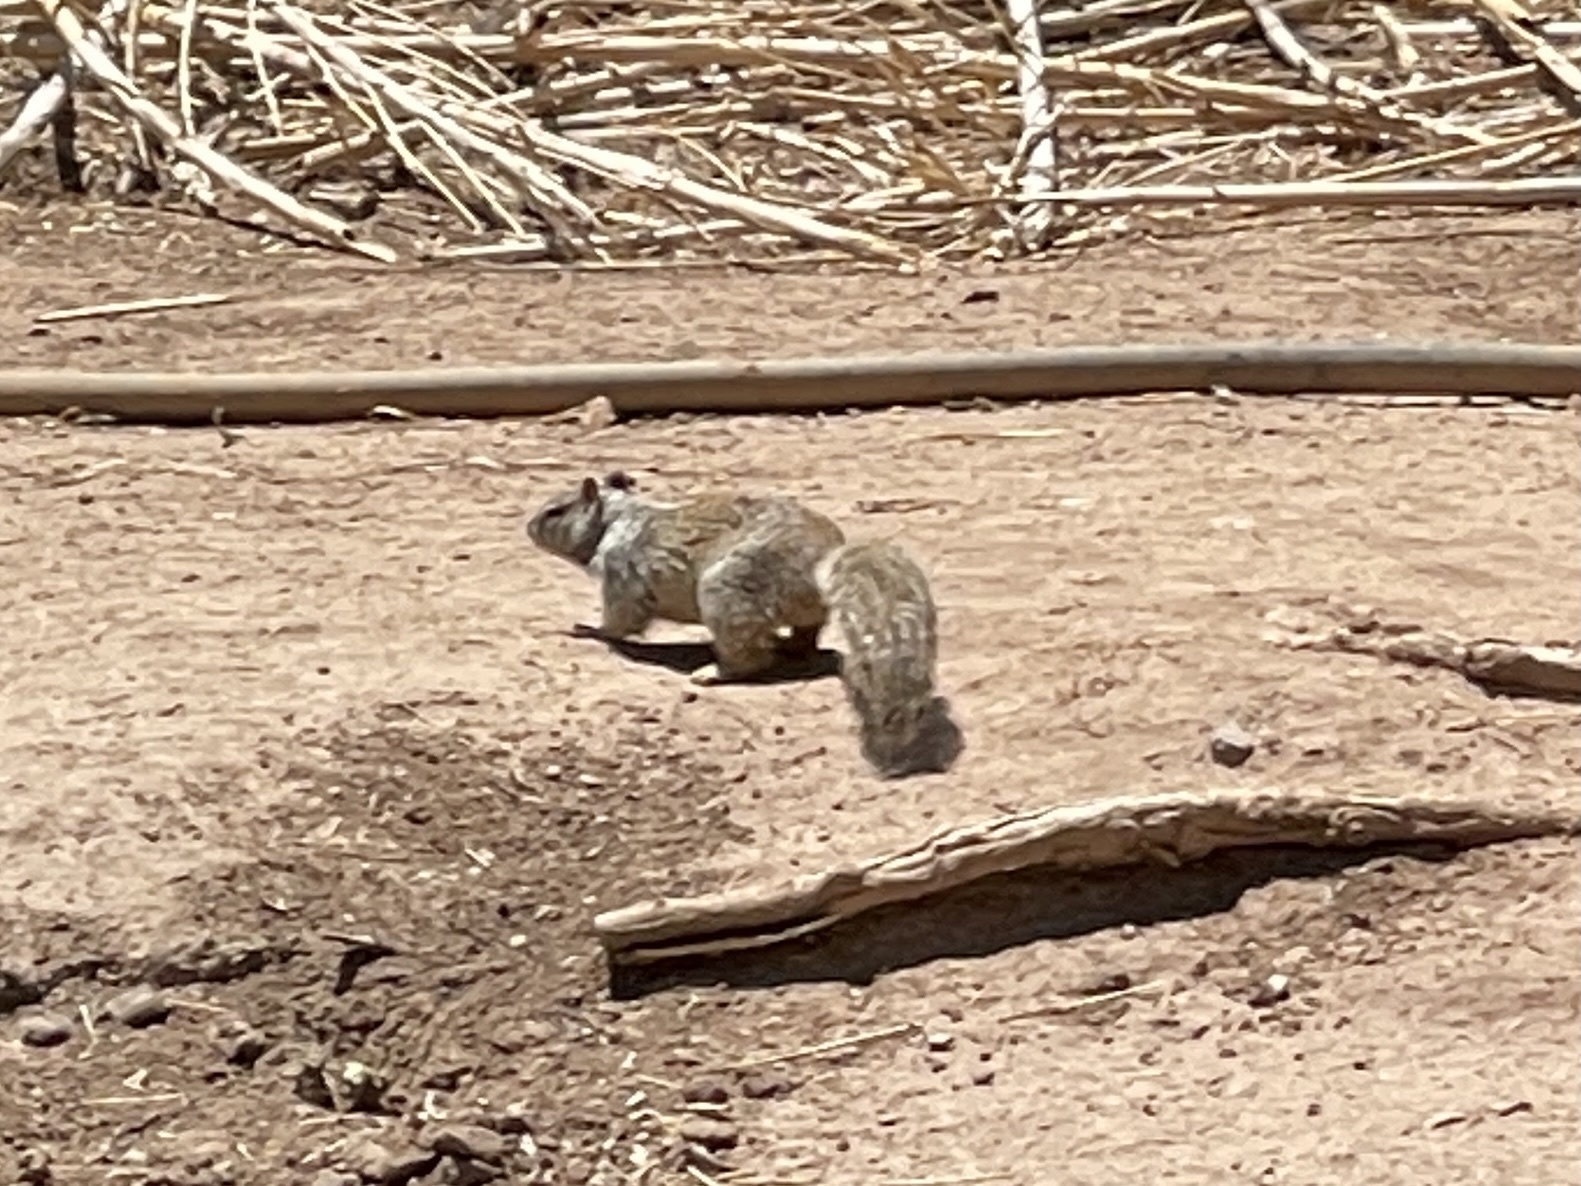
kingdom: Animalia
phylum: Chordata
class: Mammalia
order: Rodentia
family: Sciuridae
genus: Otospermophilus
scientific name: Otospermophilus variegatus
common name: Rock squirrel
